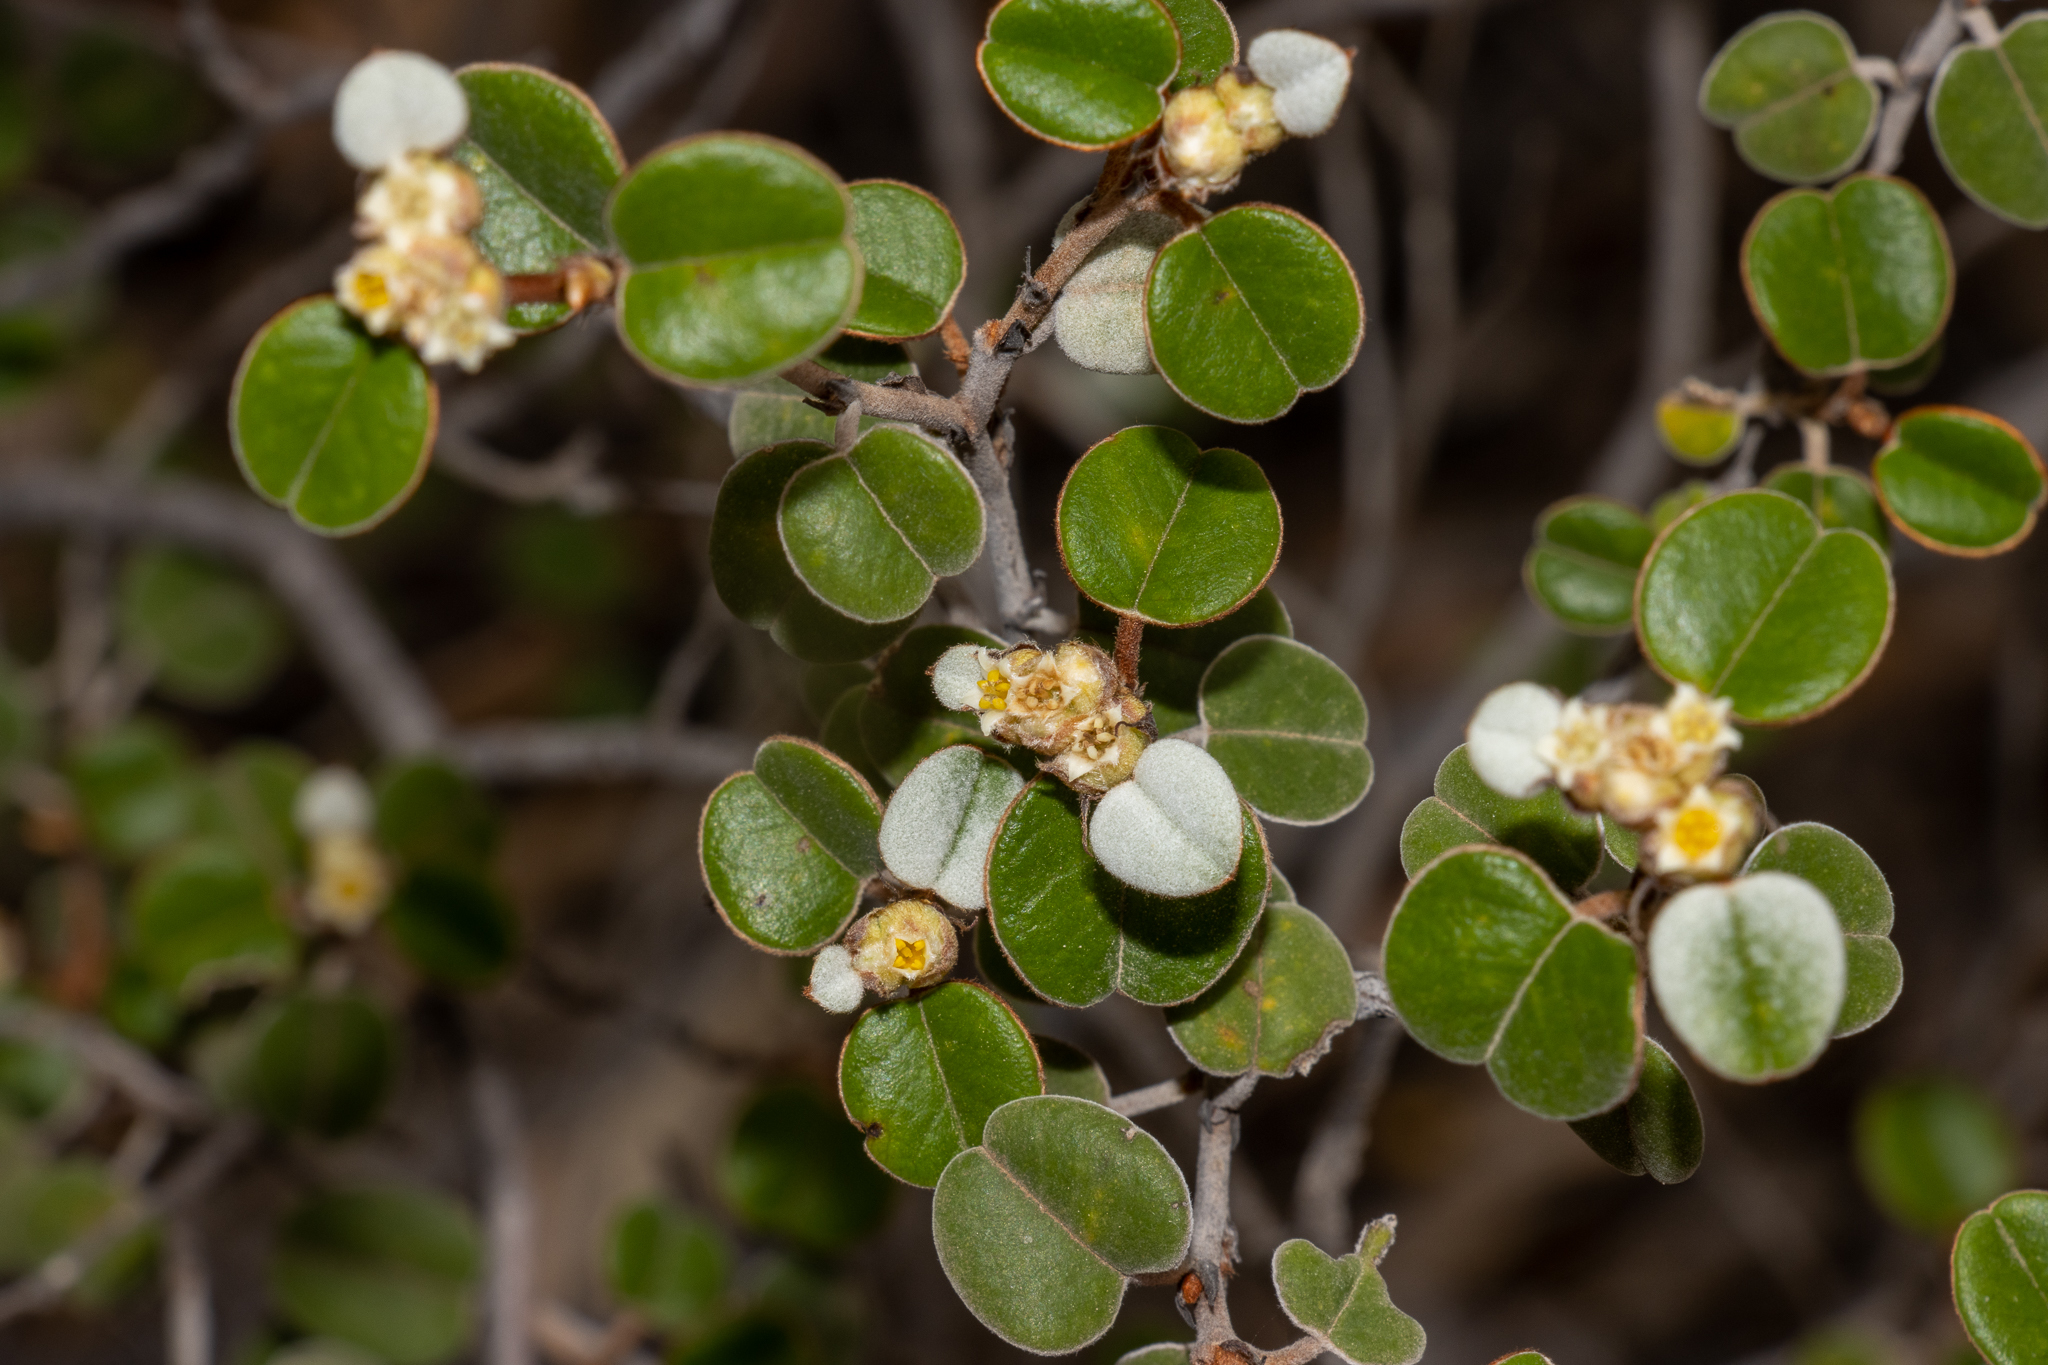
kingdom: Plantae
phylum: Tracheophyta
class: Magnoliopsida
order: Rosales
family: Rhamnaceae
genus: Spyridium
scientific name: Spyridium tricolor
